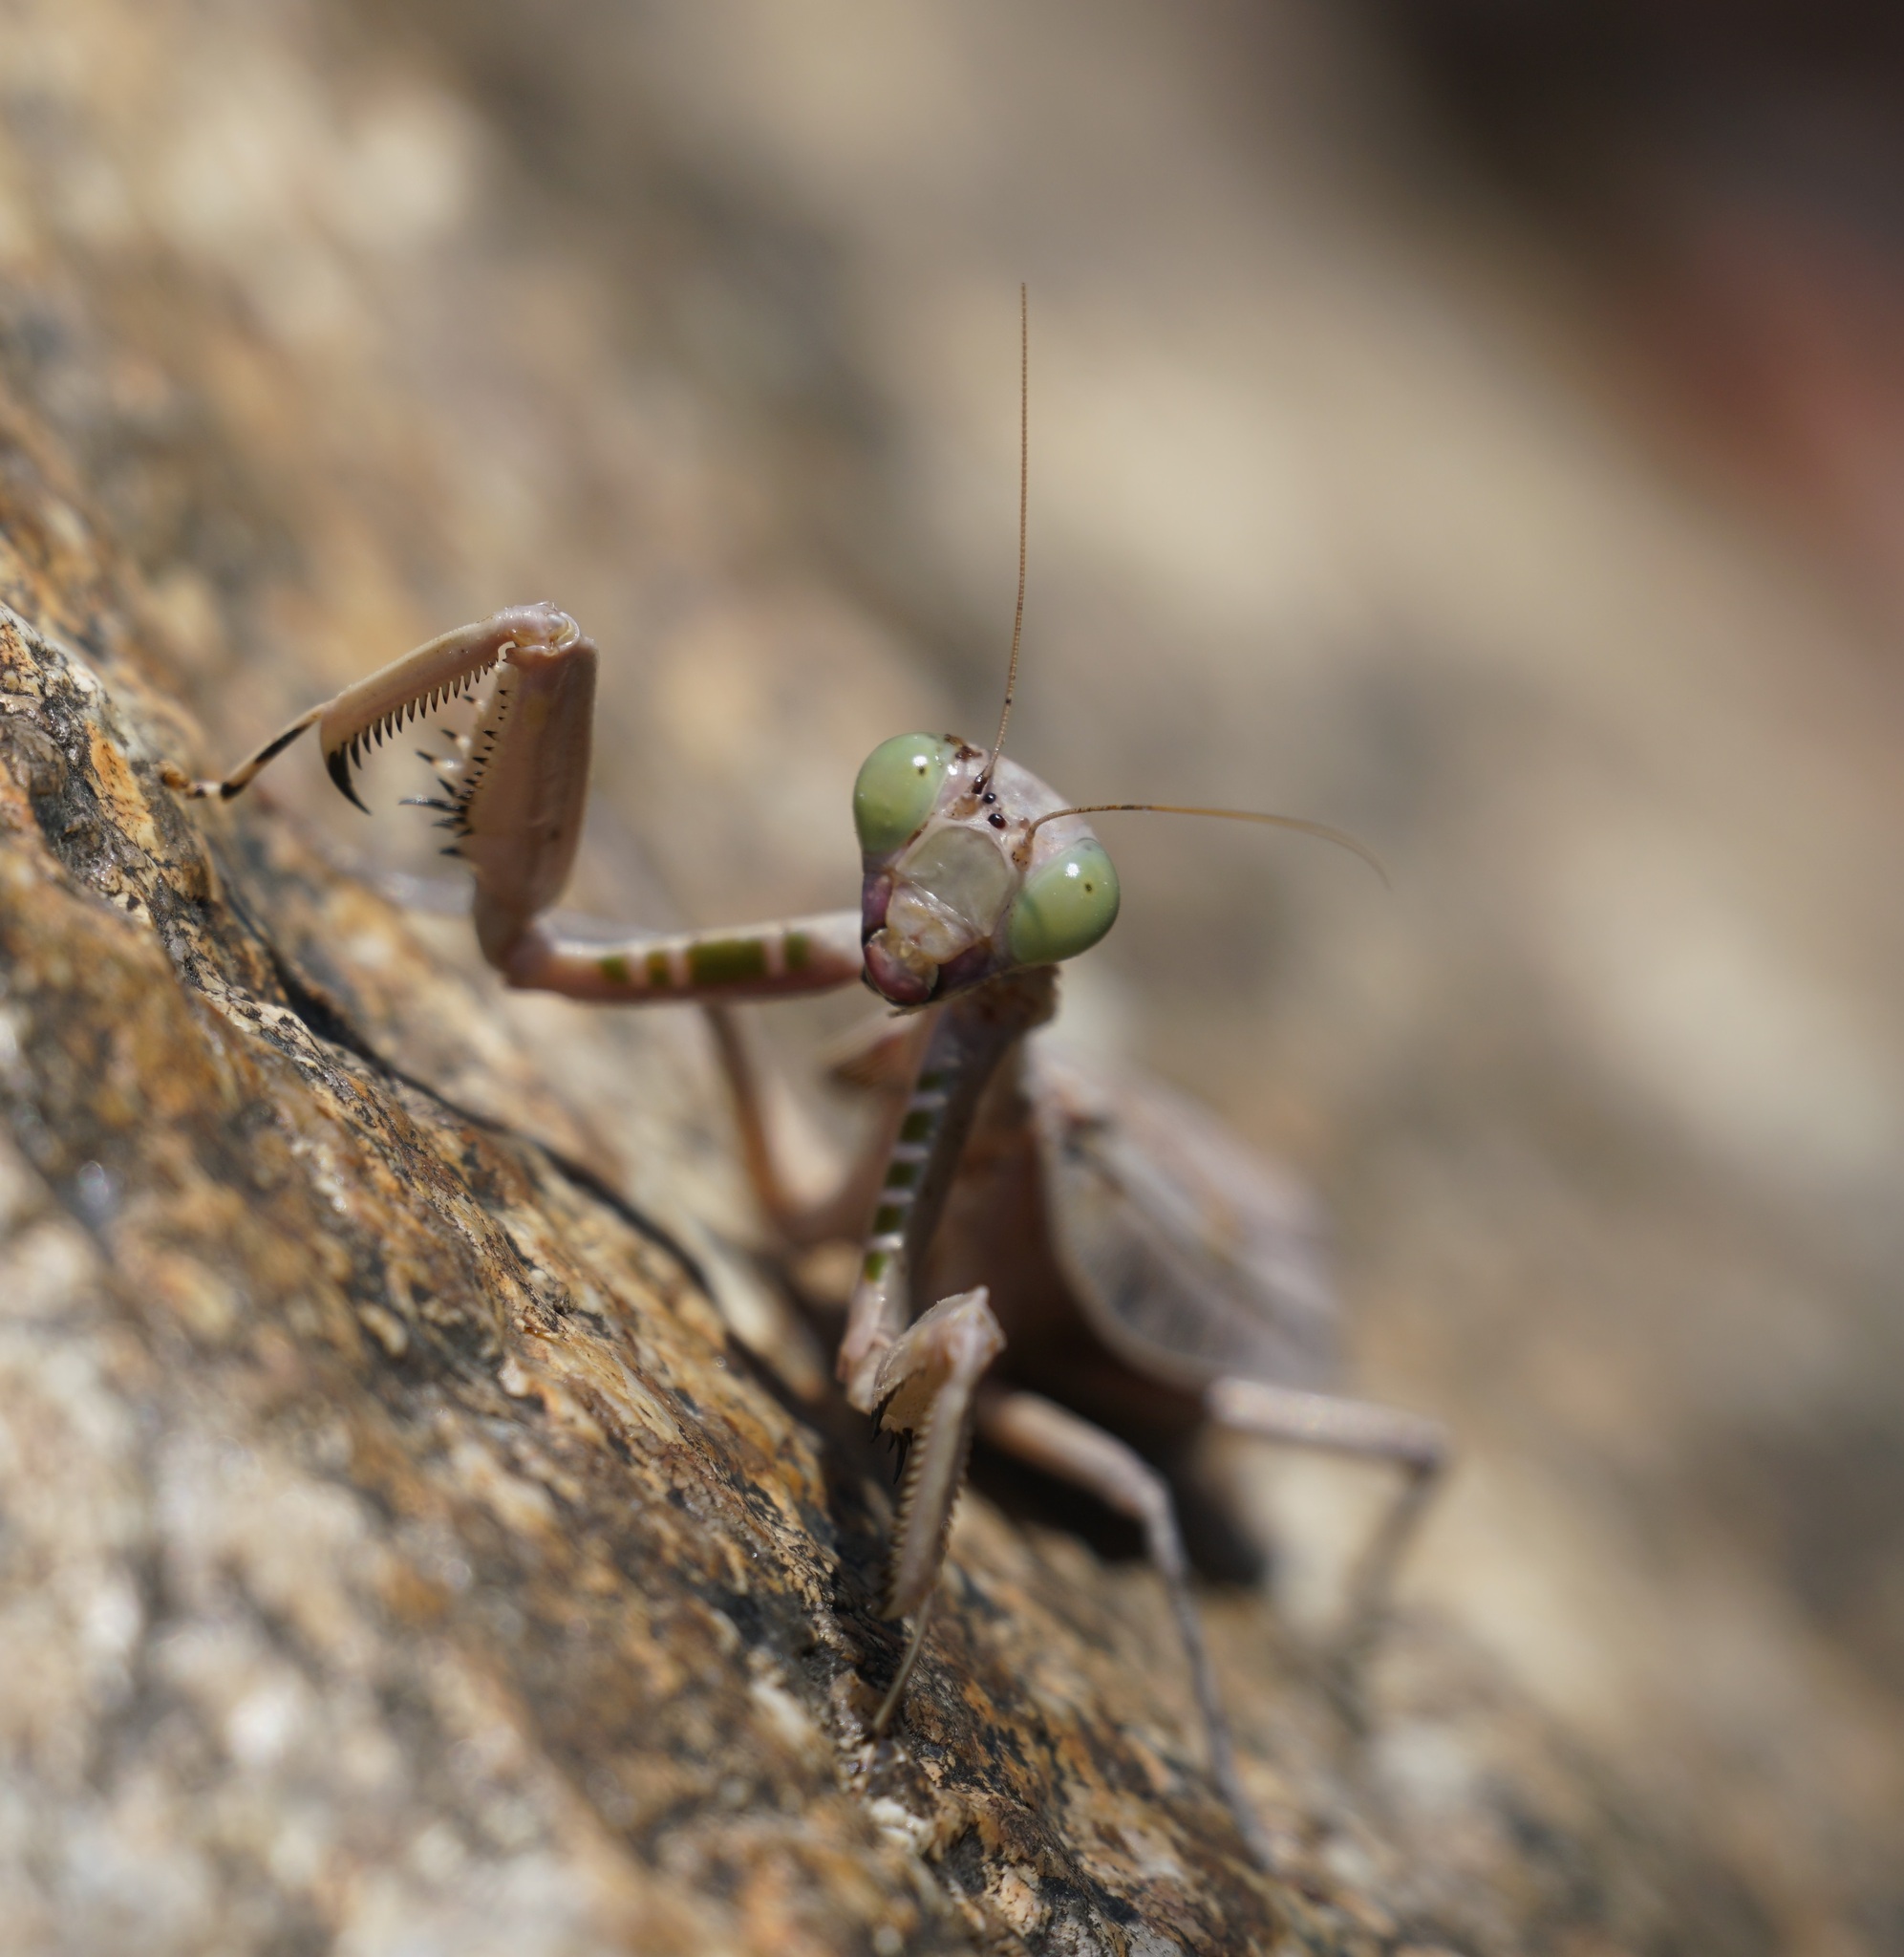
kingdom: Animalia
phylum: Arthropoda
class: Insecta
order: Mantodea
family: Mantidae
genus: Sphodropoda
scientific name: Sphodropoda quinquedens
